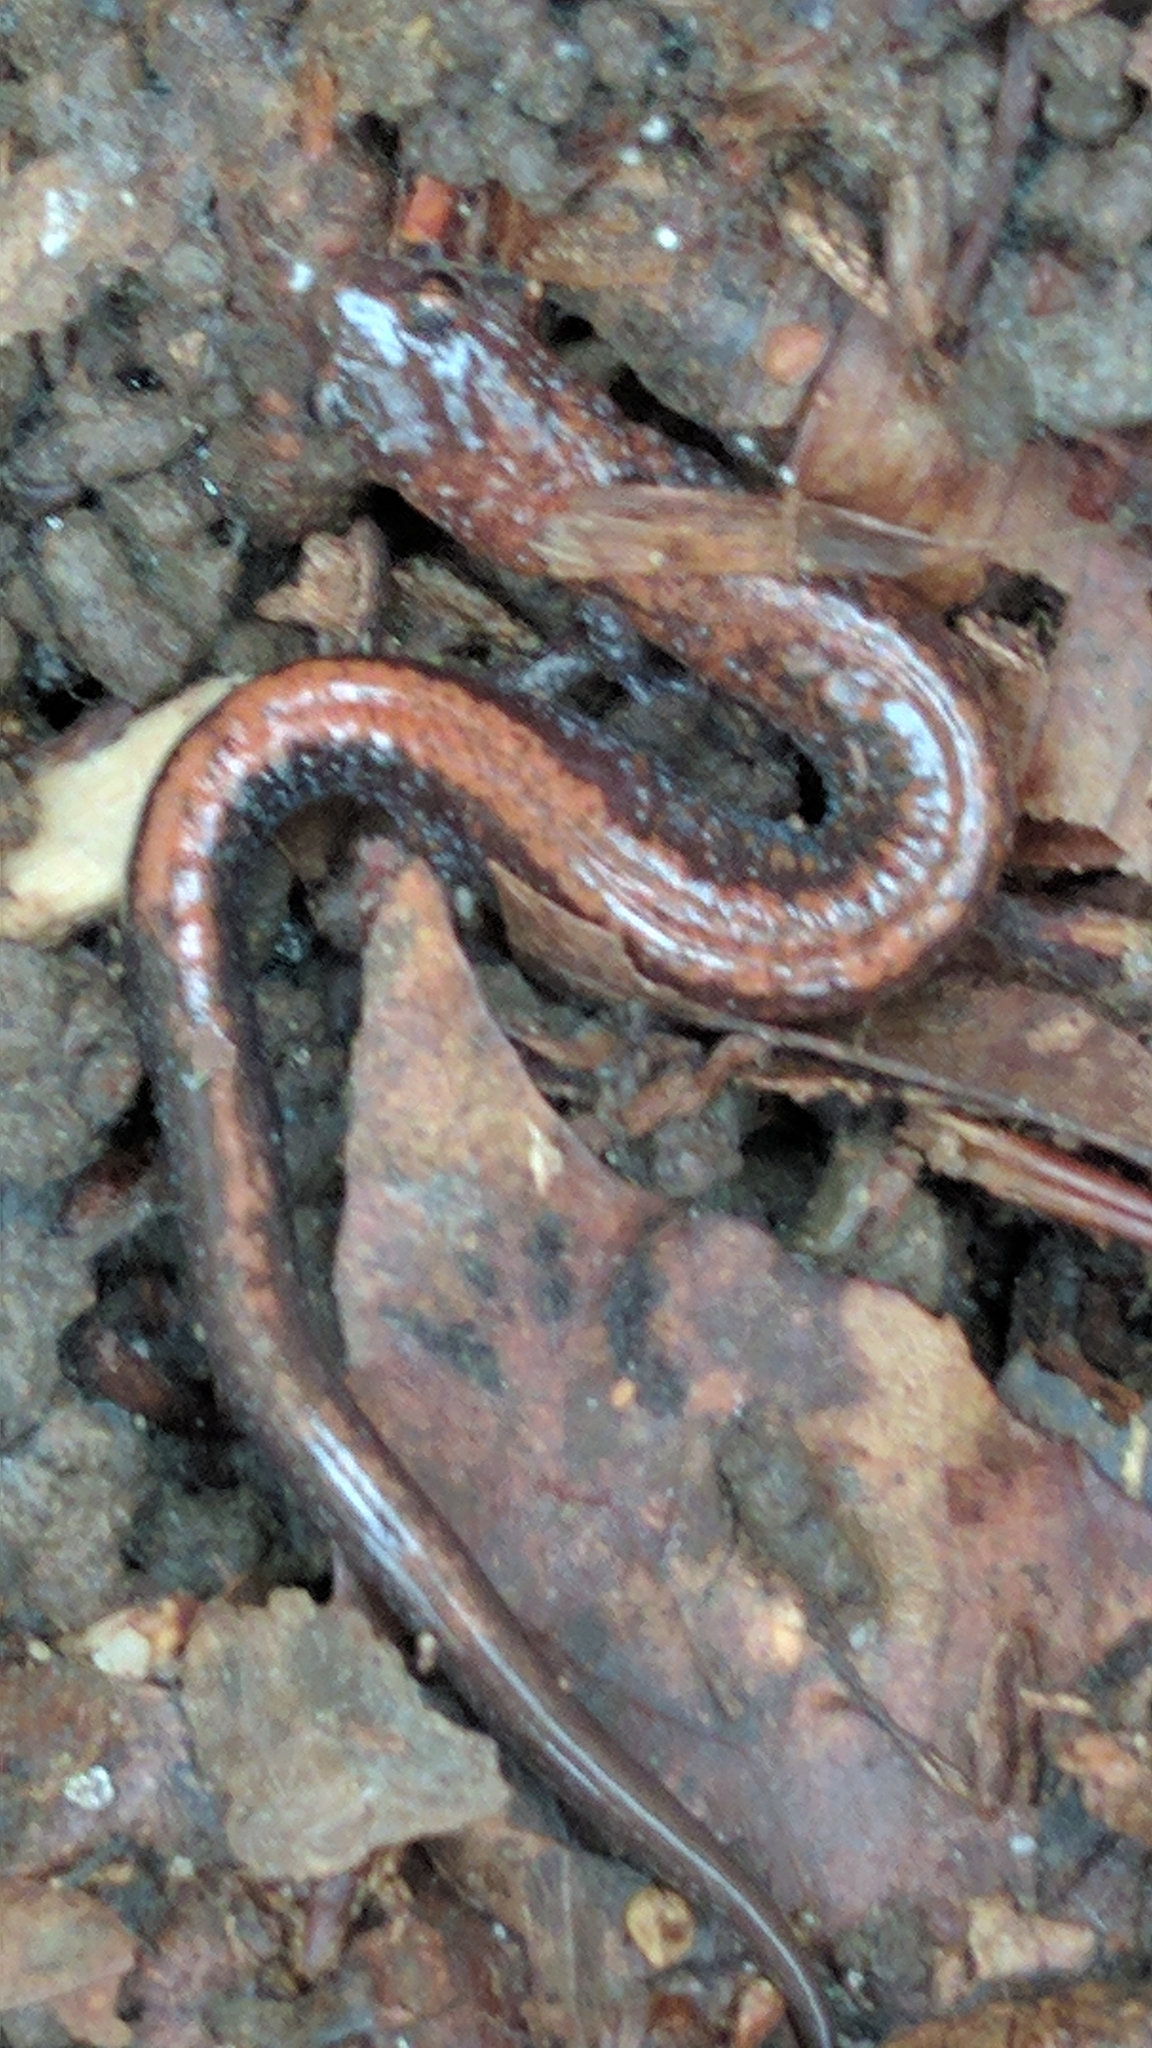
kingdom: Animalia
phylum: Chordata
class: Amphibia
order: Caudata
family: Plethodontidae
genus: Plethodon
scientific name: Plethodon cinereus
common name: Redback salamander
